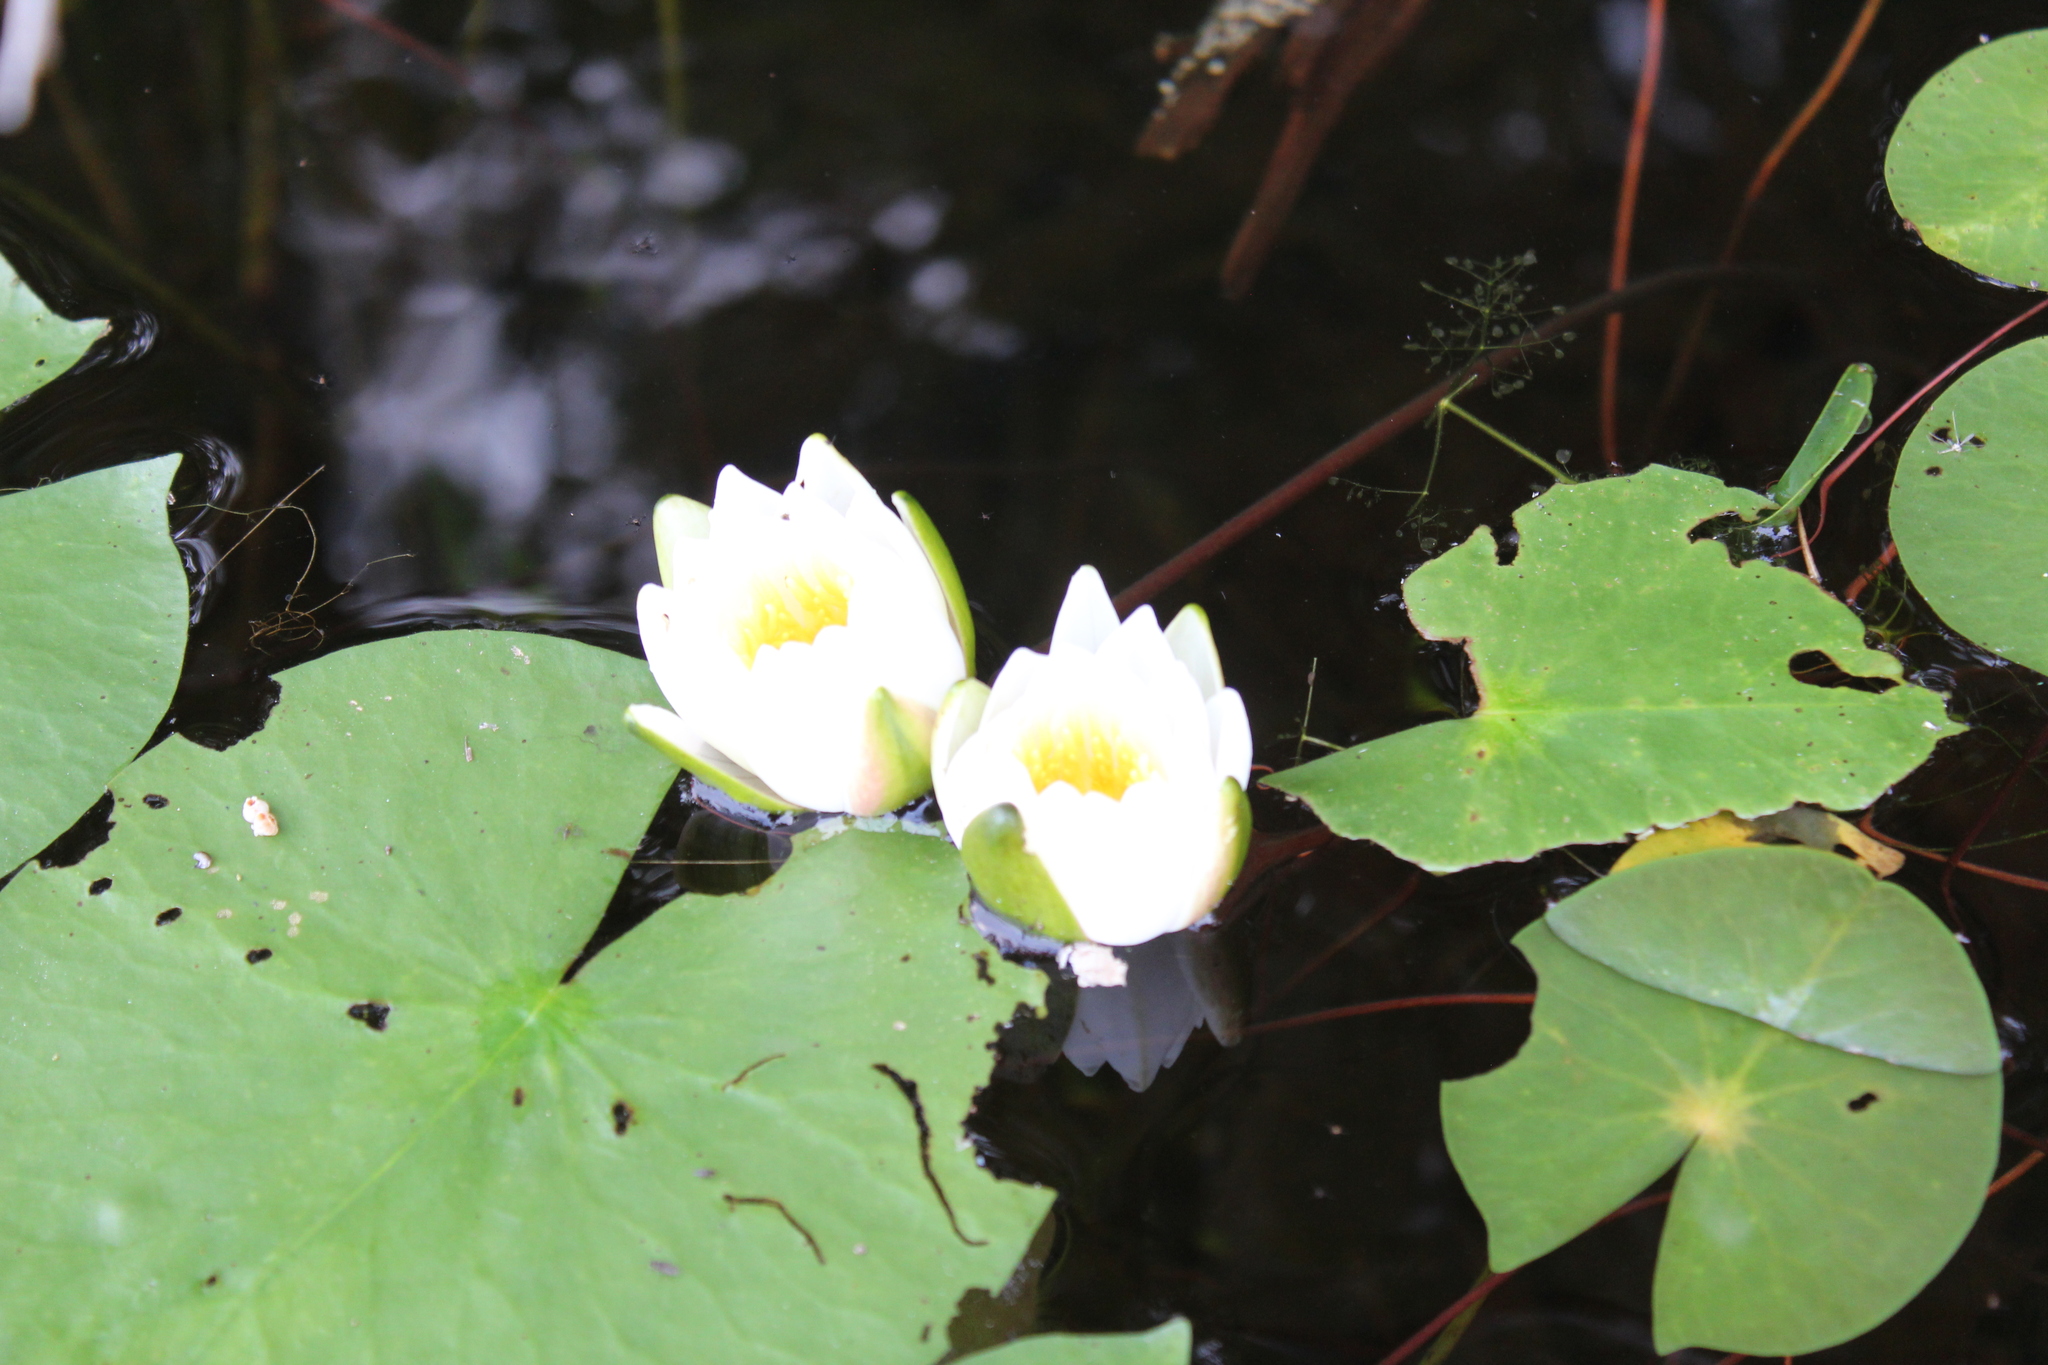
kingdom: Plantae
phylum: Tracheophyta
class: Magnoliopsida
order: Nymphaeales
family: Nymphaeaceae
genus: Nymphaea
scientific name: Nymphaea odorata
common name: Fragrant water-lily
